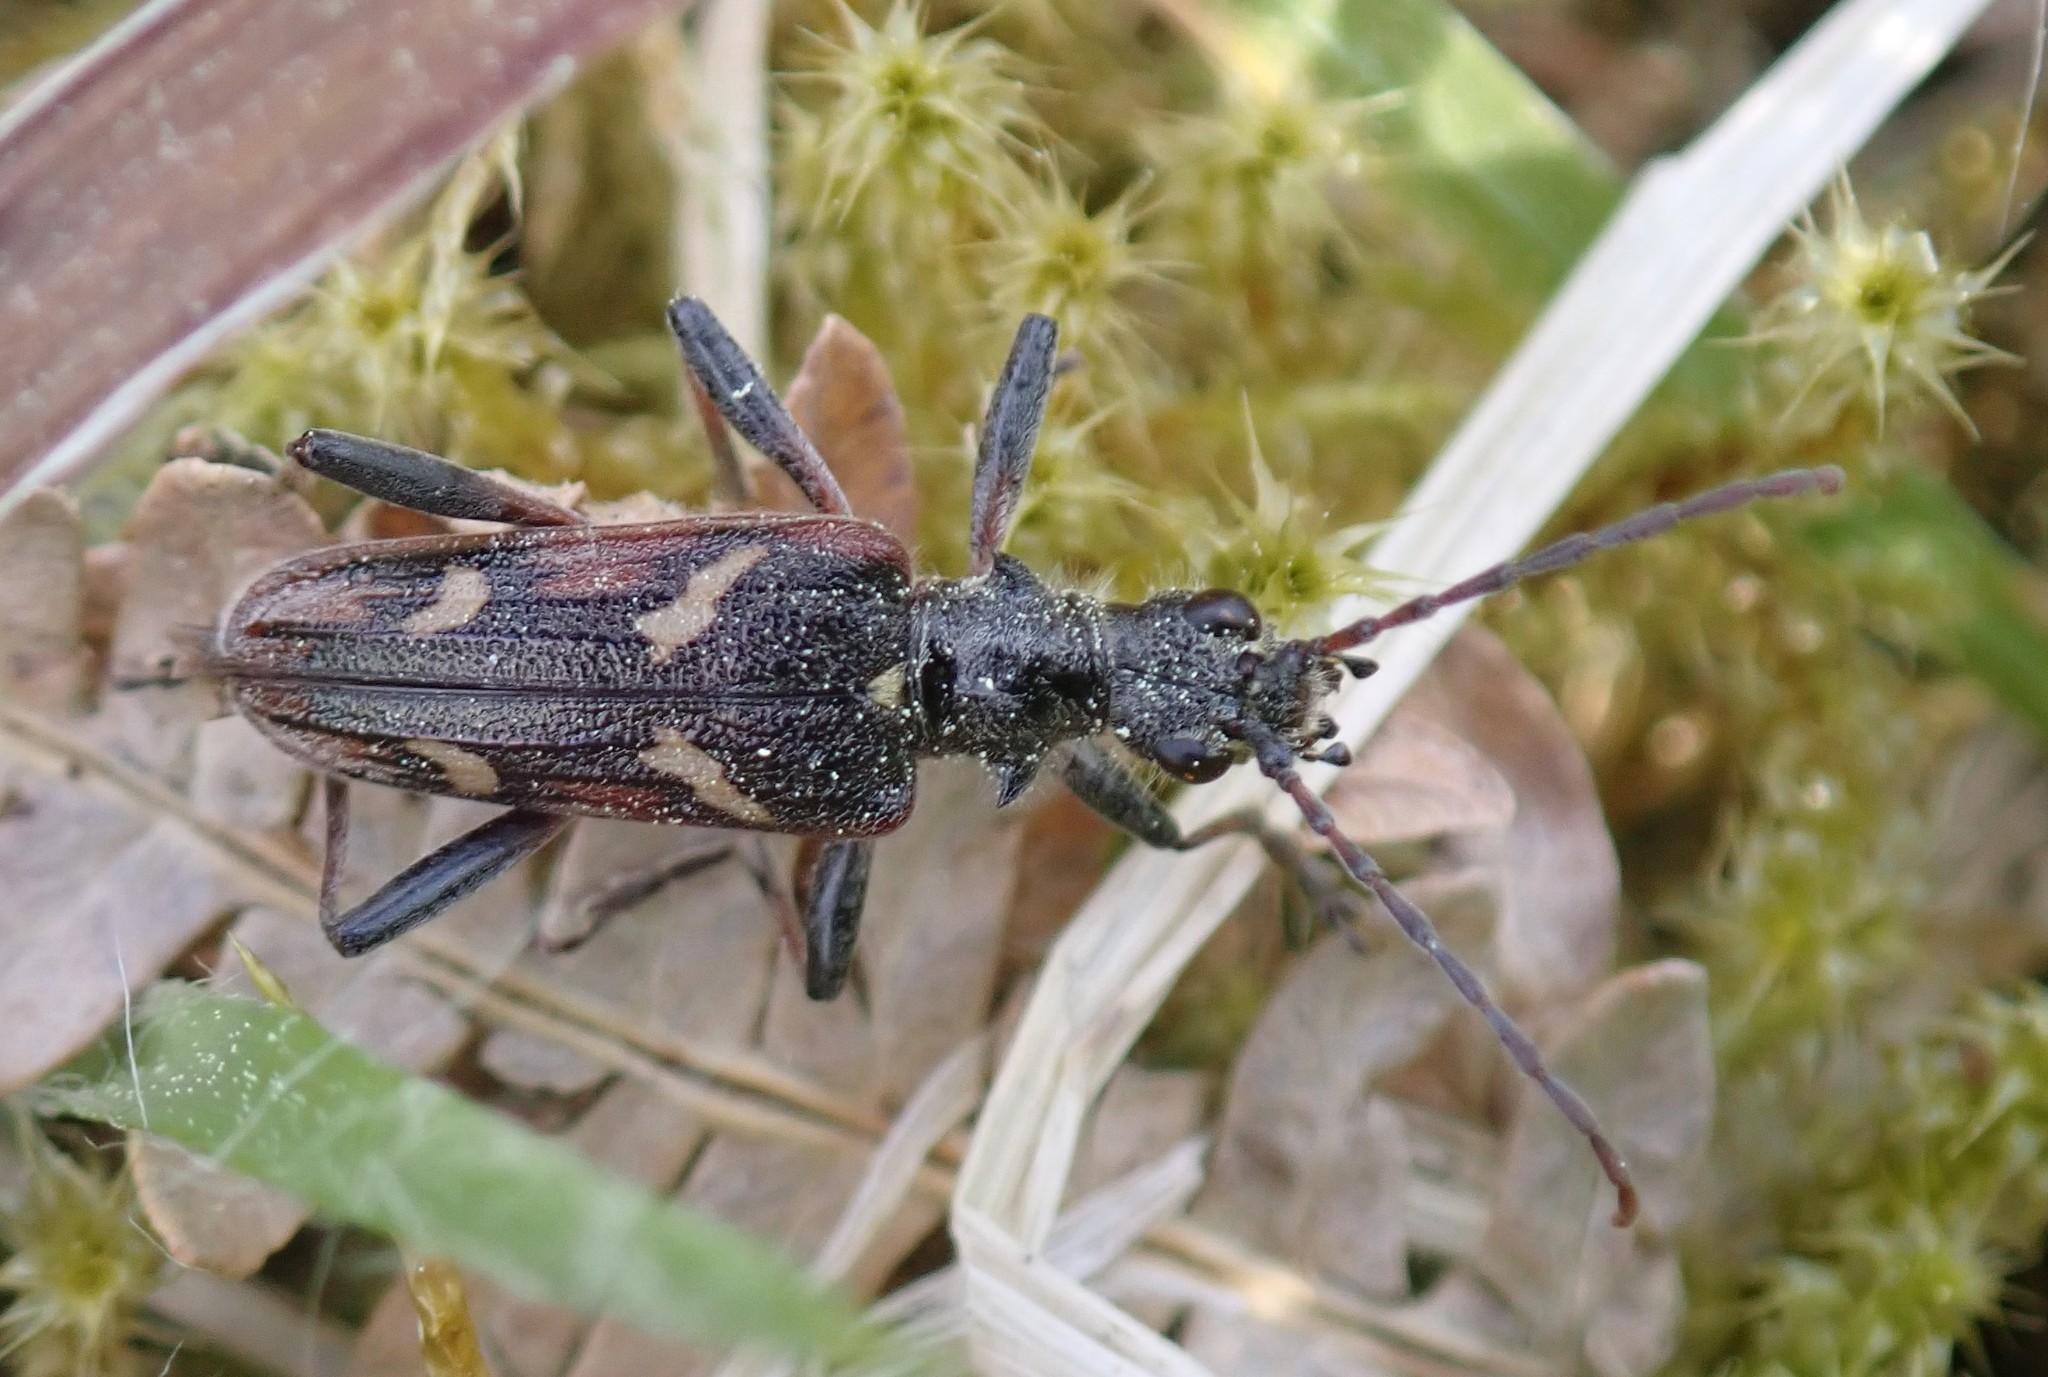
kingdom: Animalia
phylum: Arthropoda
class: Insecta
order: Coleoptera
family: Cerambycidae
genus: Rhagium
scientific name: Rhagium bifasciatum
